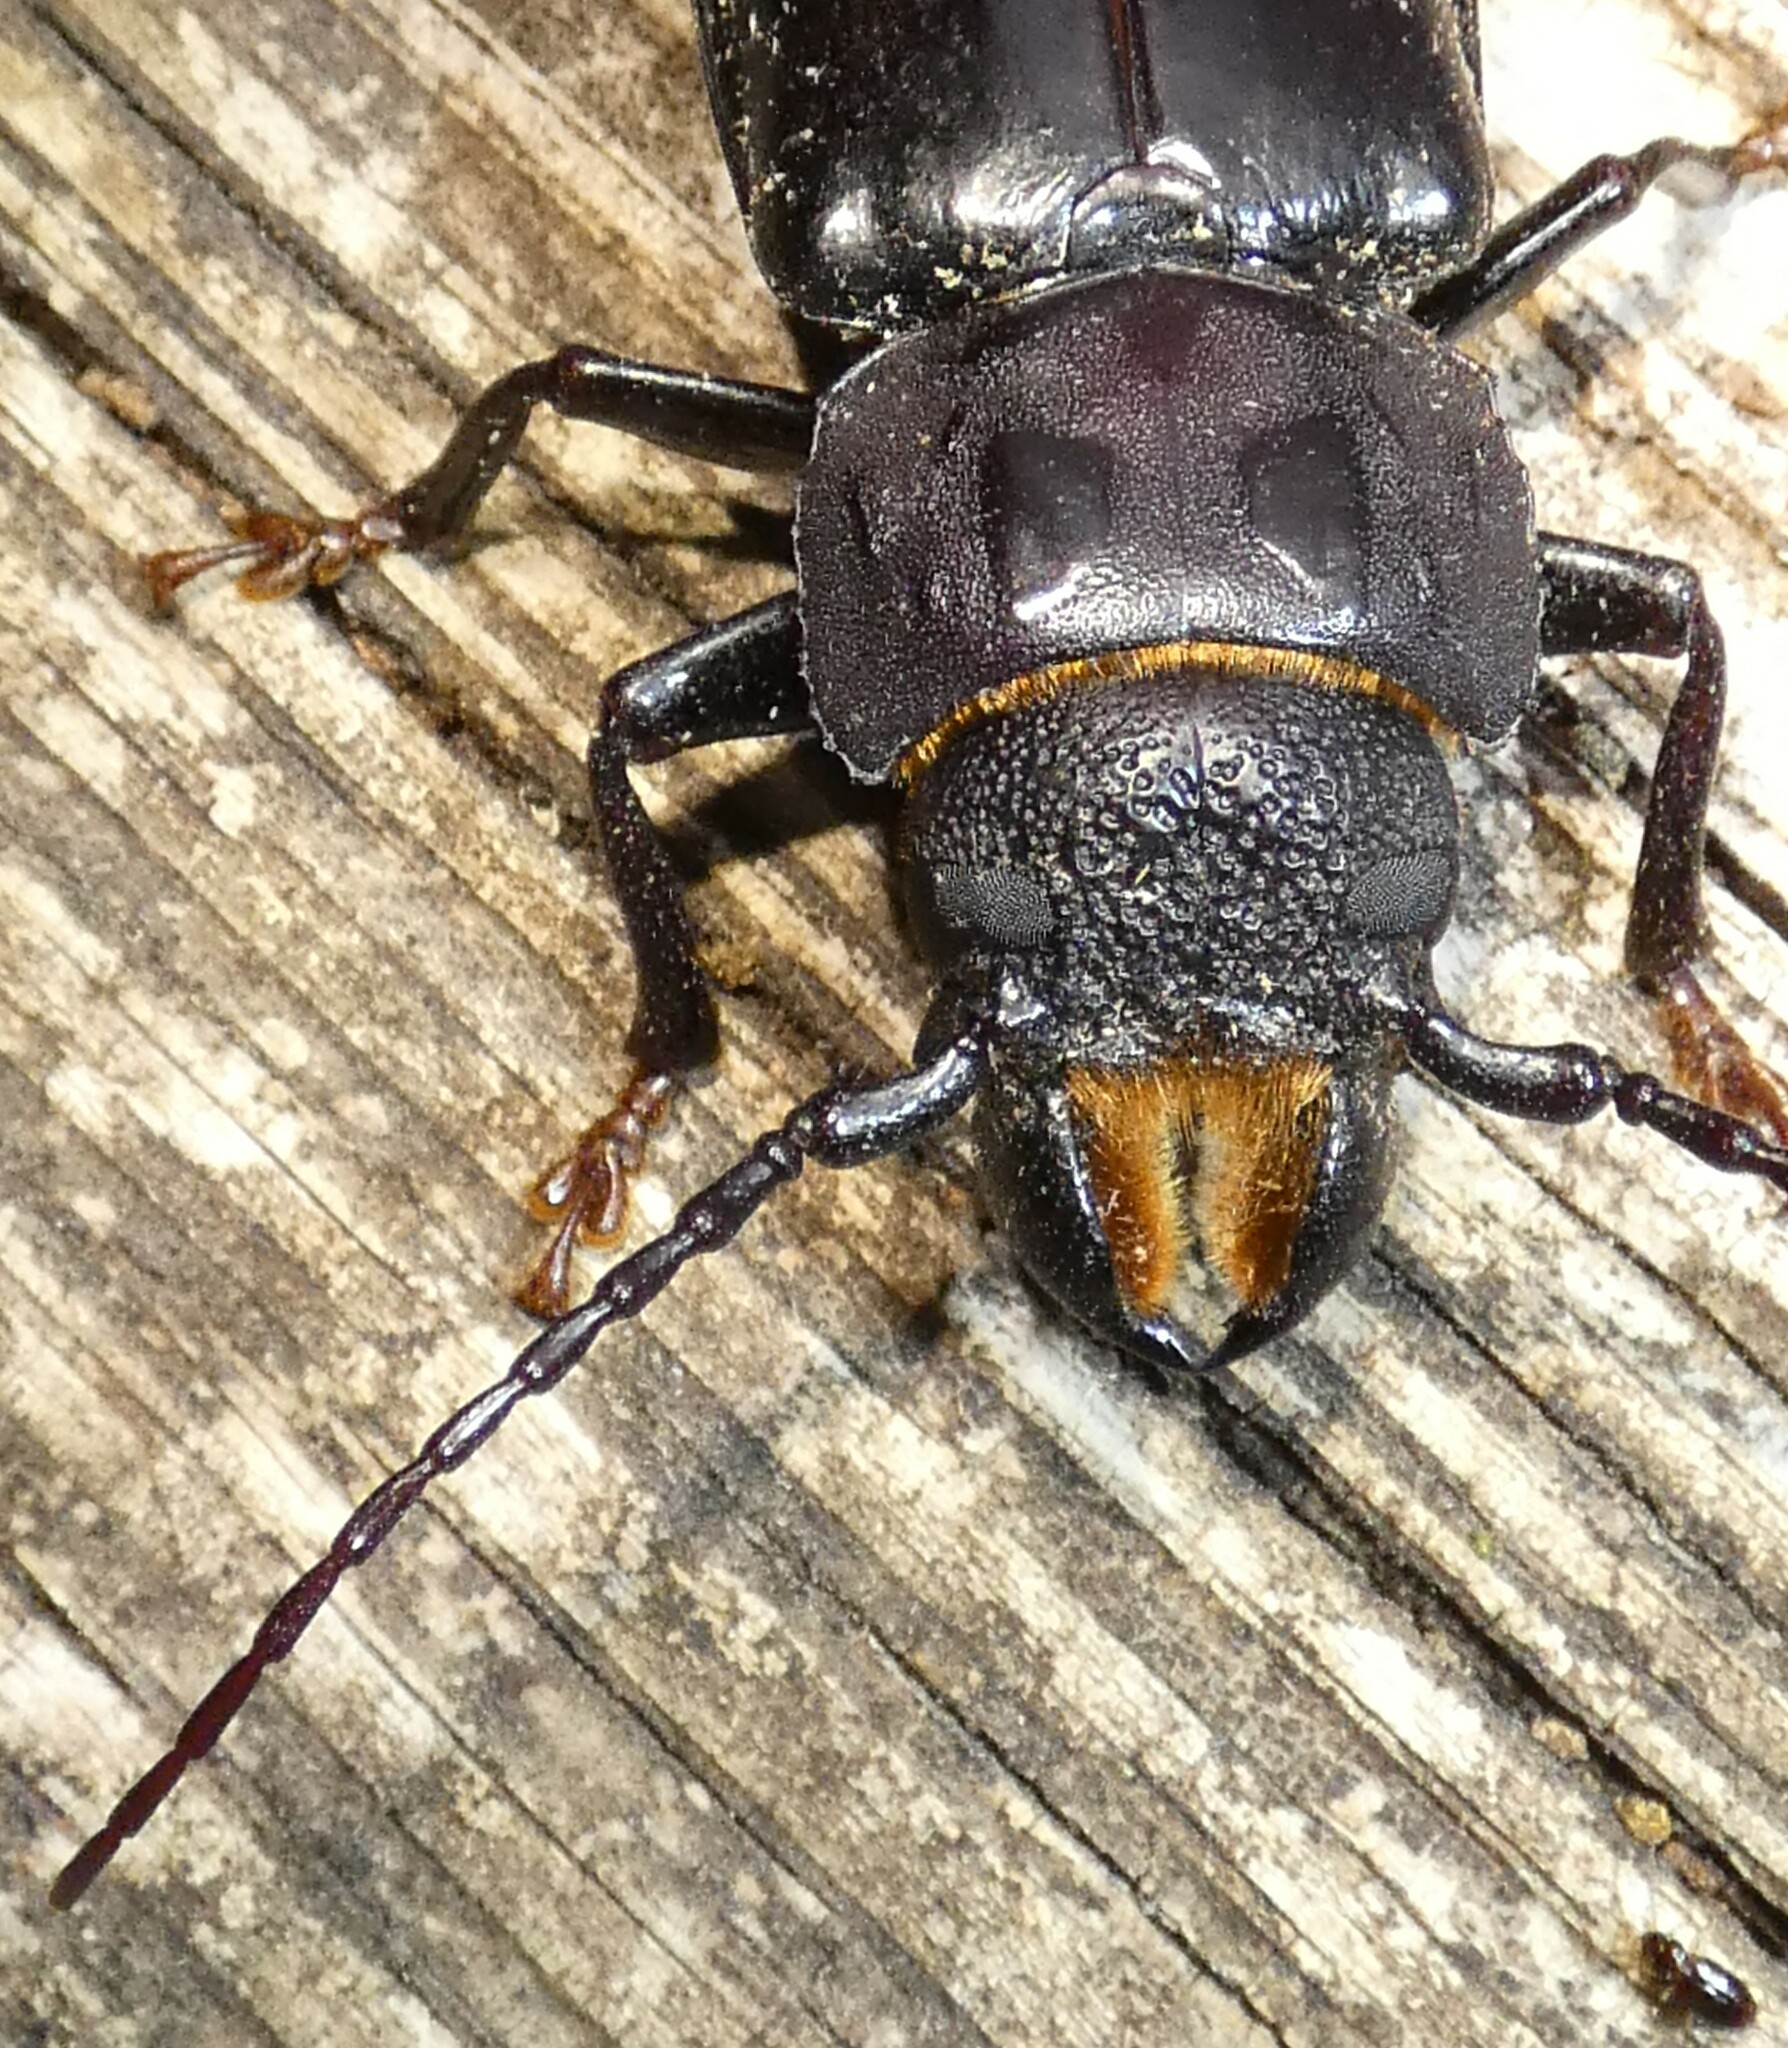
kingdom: Animalia
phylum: Arthropoda
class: Insecta
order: Coleoptera
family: Cerambycidae
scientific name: Cerambycidae
